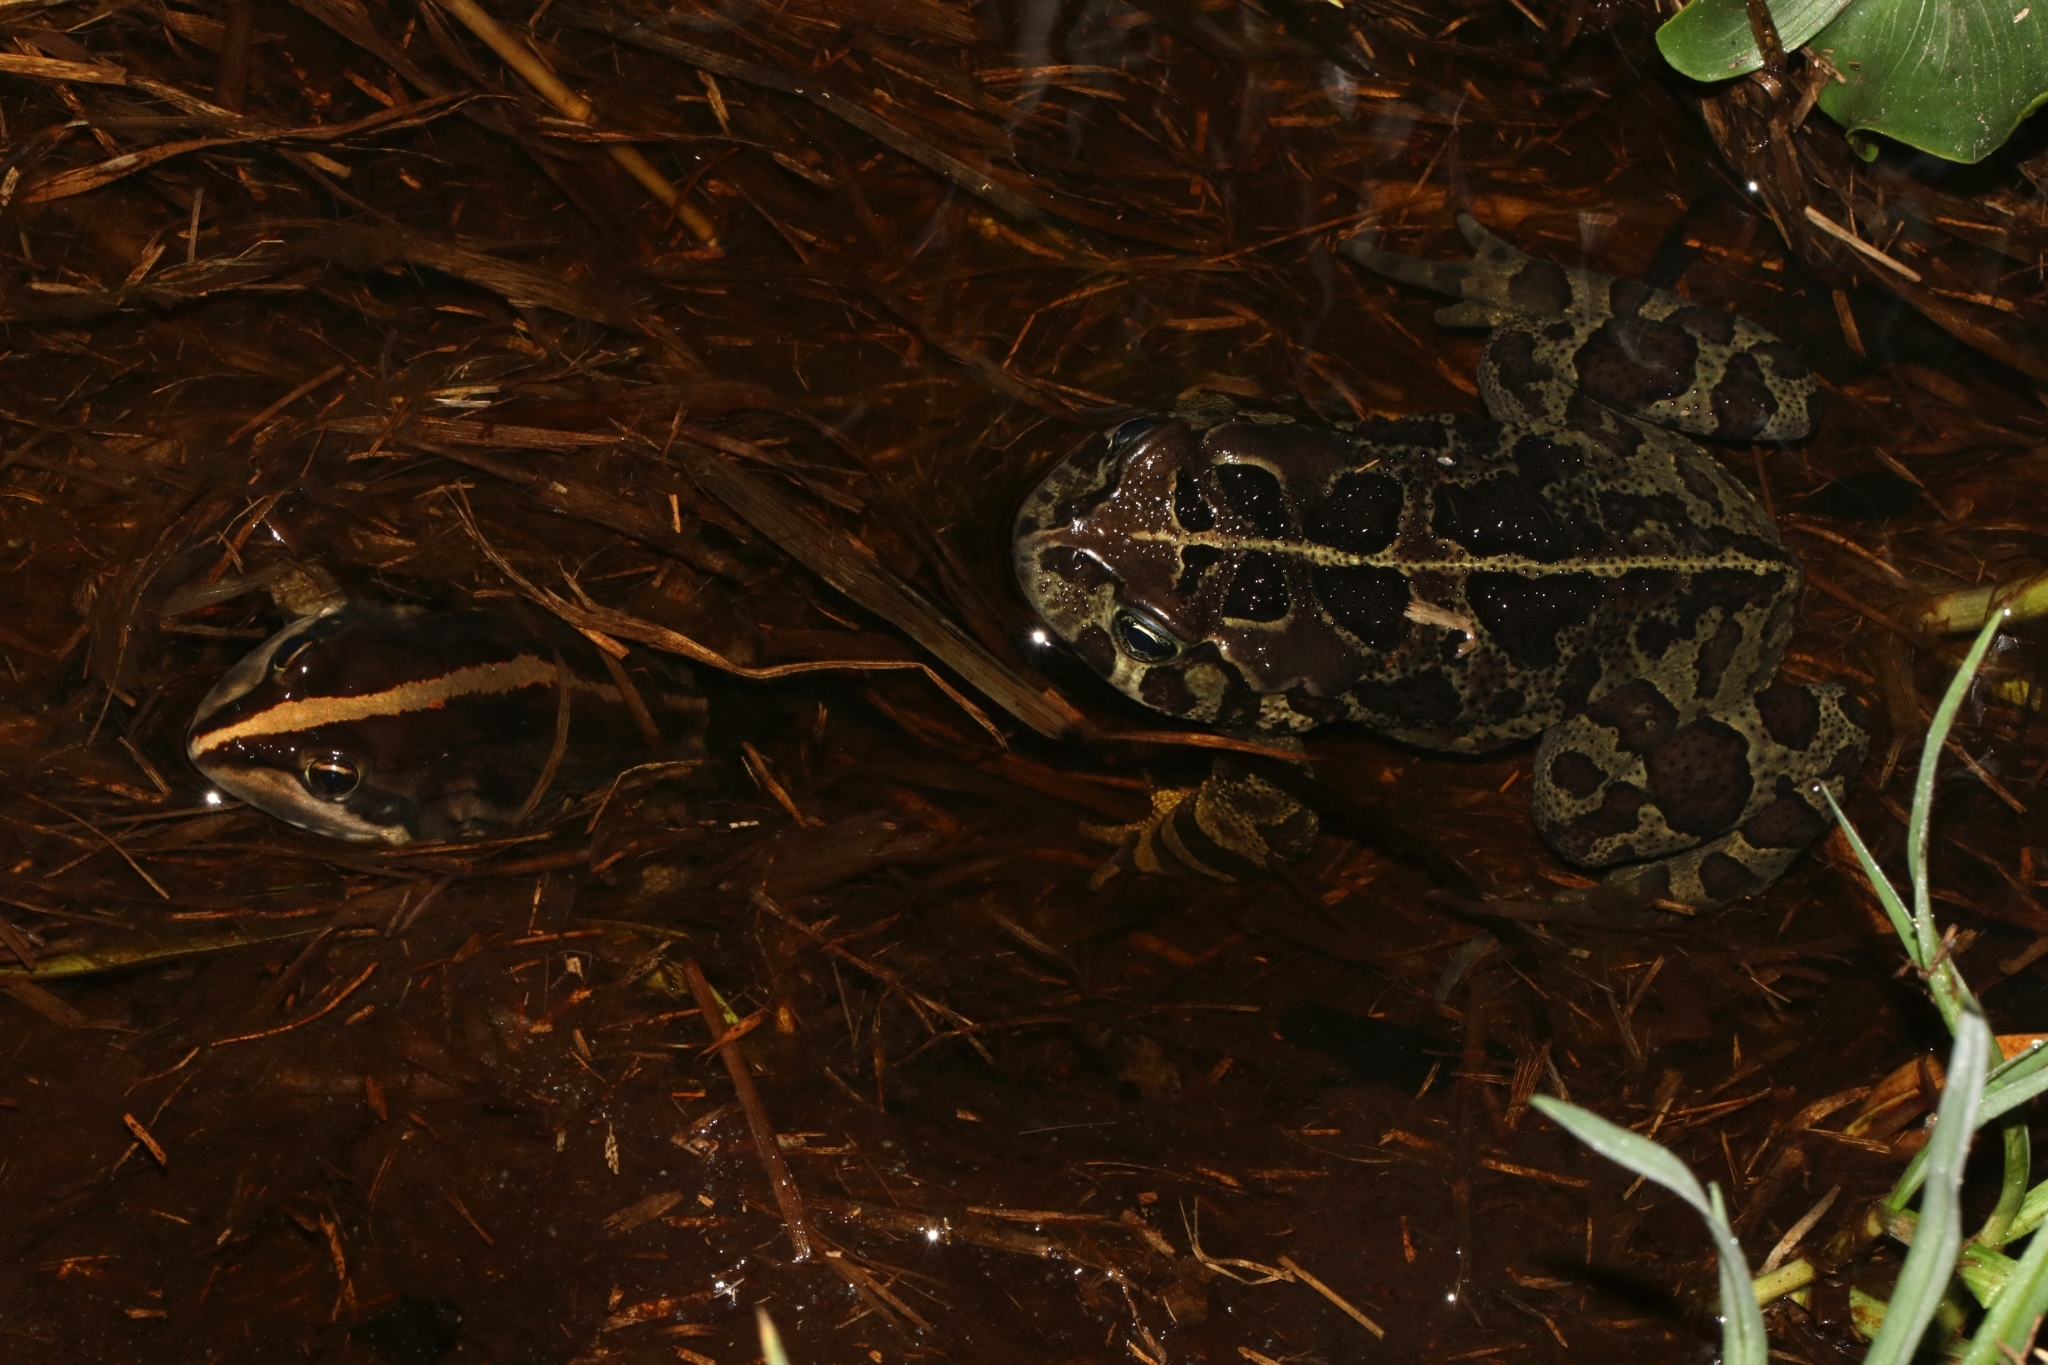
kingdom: Animalia
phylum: Chordata
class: Amphibia
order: Anura
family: Bufonidae
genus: Sclerophrys
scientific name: Sclerophrys pantherina
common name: Panther toad
